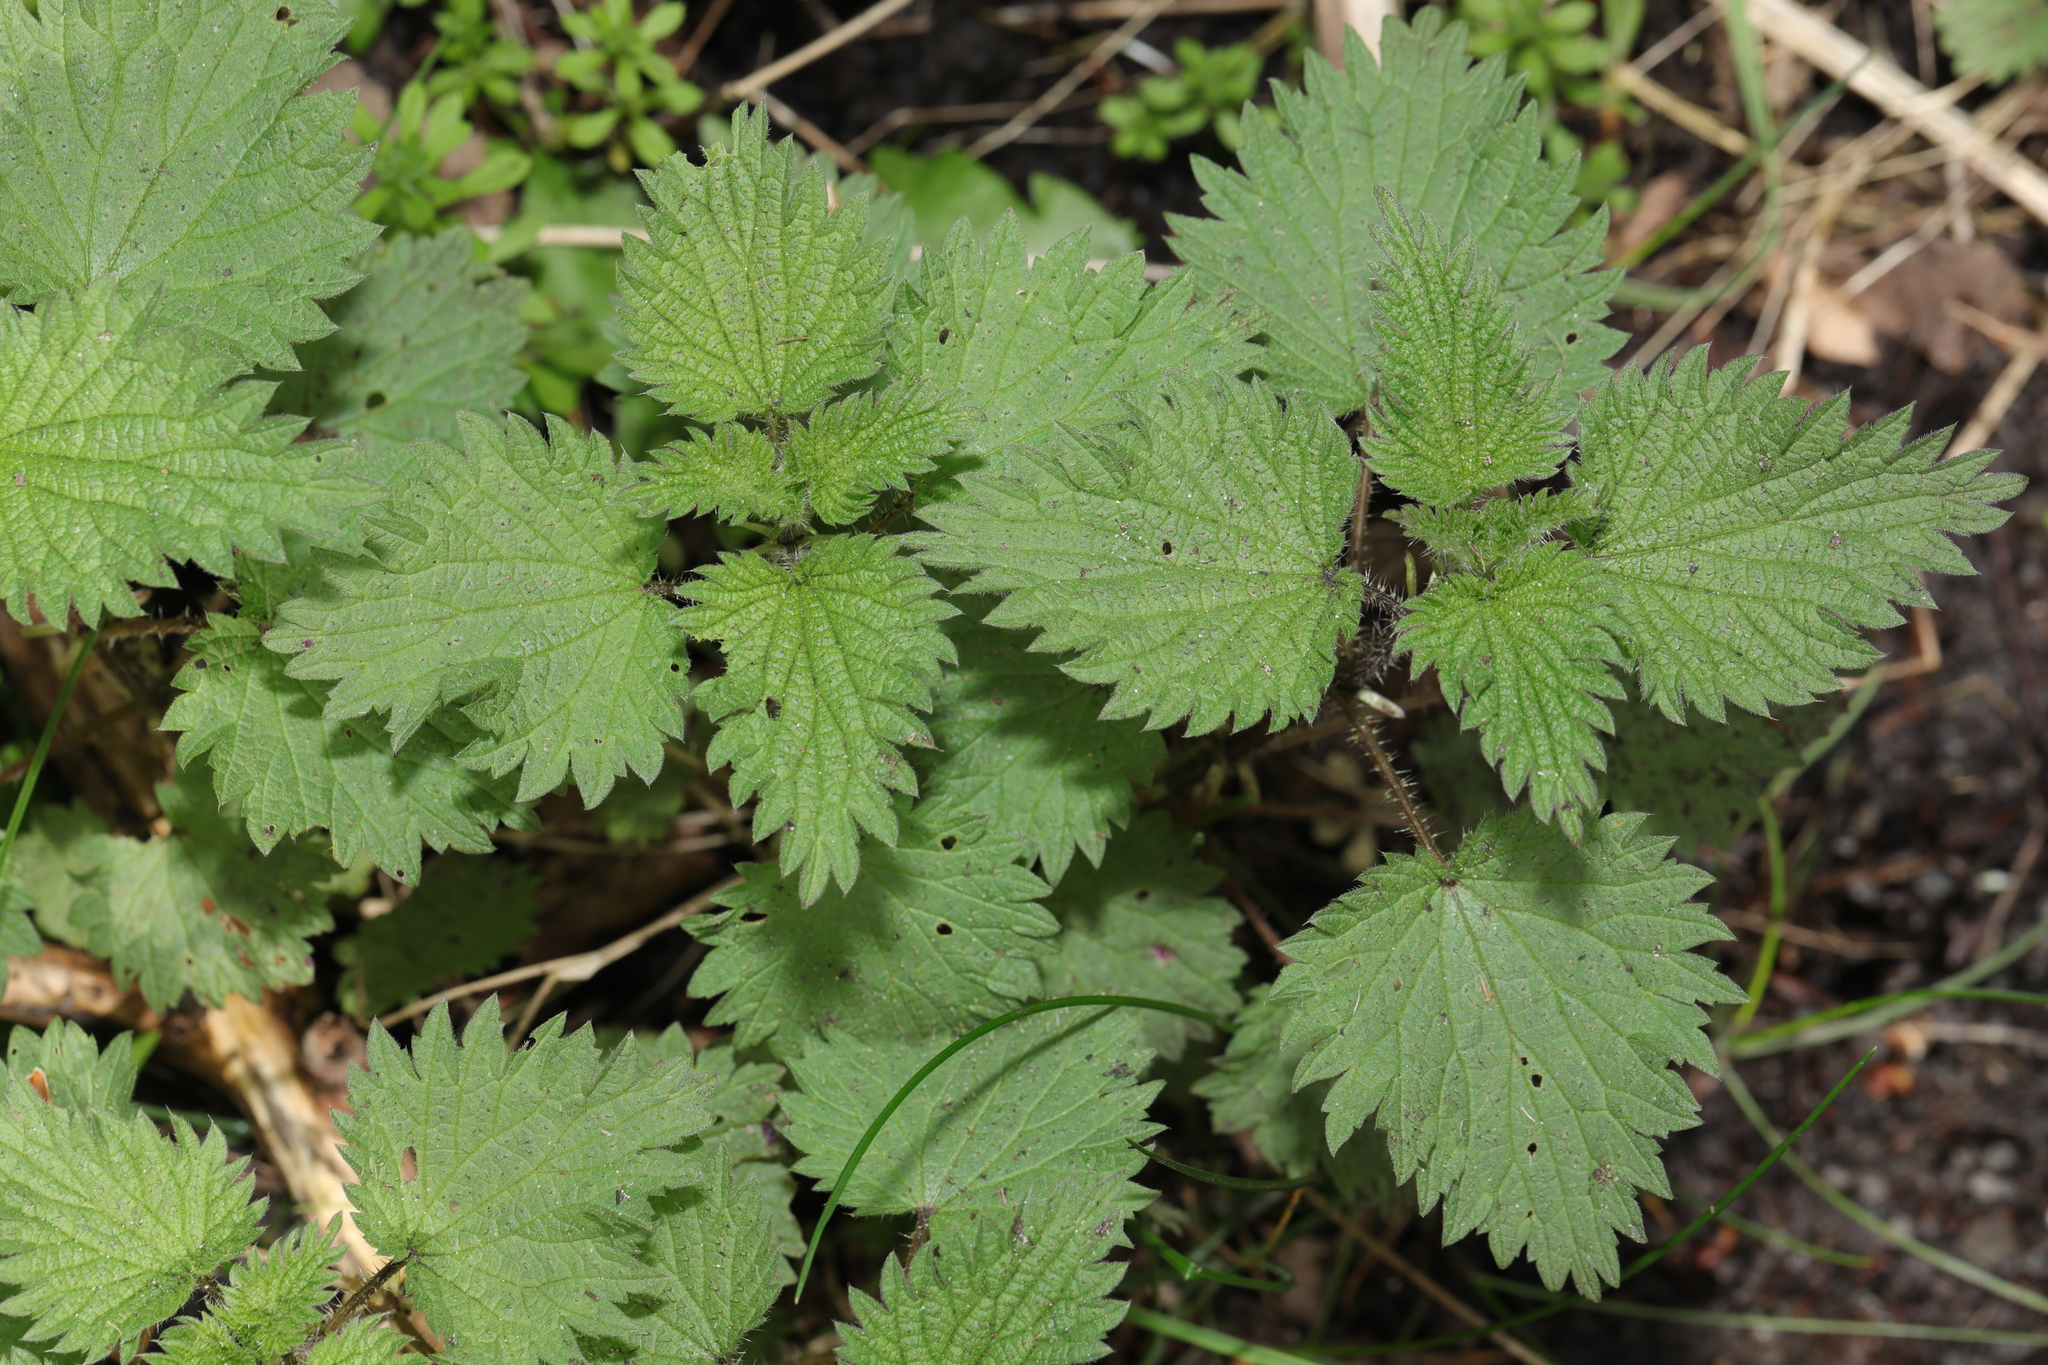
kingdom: Plantae
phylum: Tracheophyta
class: Magnoliopsida
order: Rosales
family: Urticaceae
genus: Urtica
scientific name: Urtica dioica
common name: Common nettle
